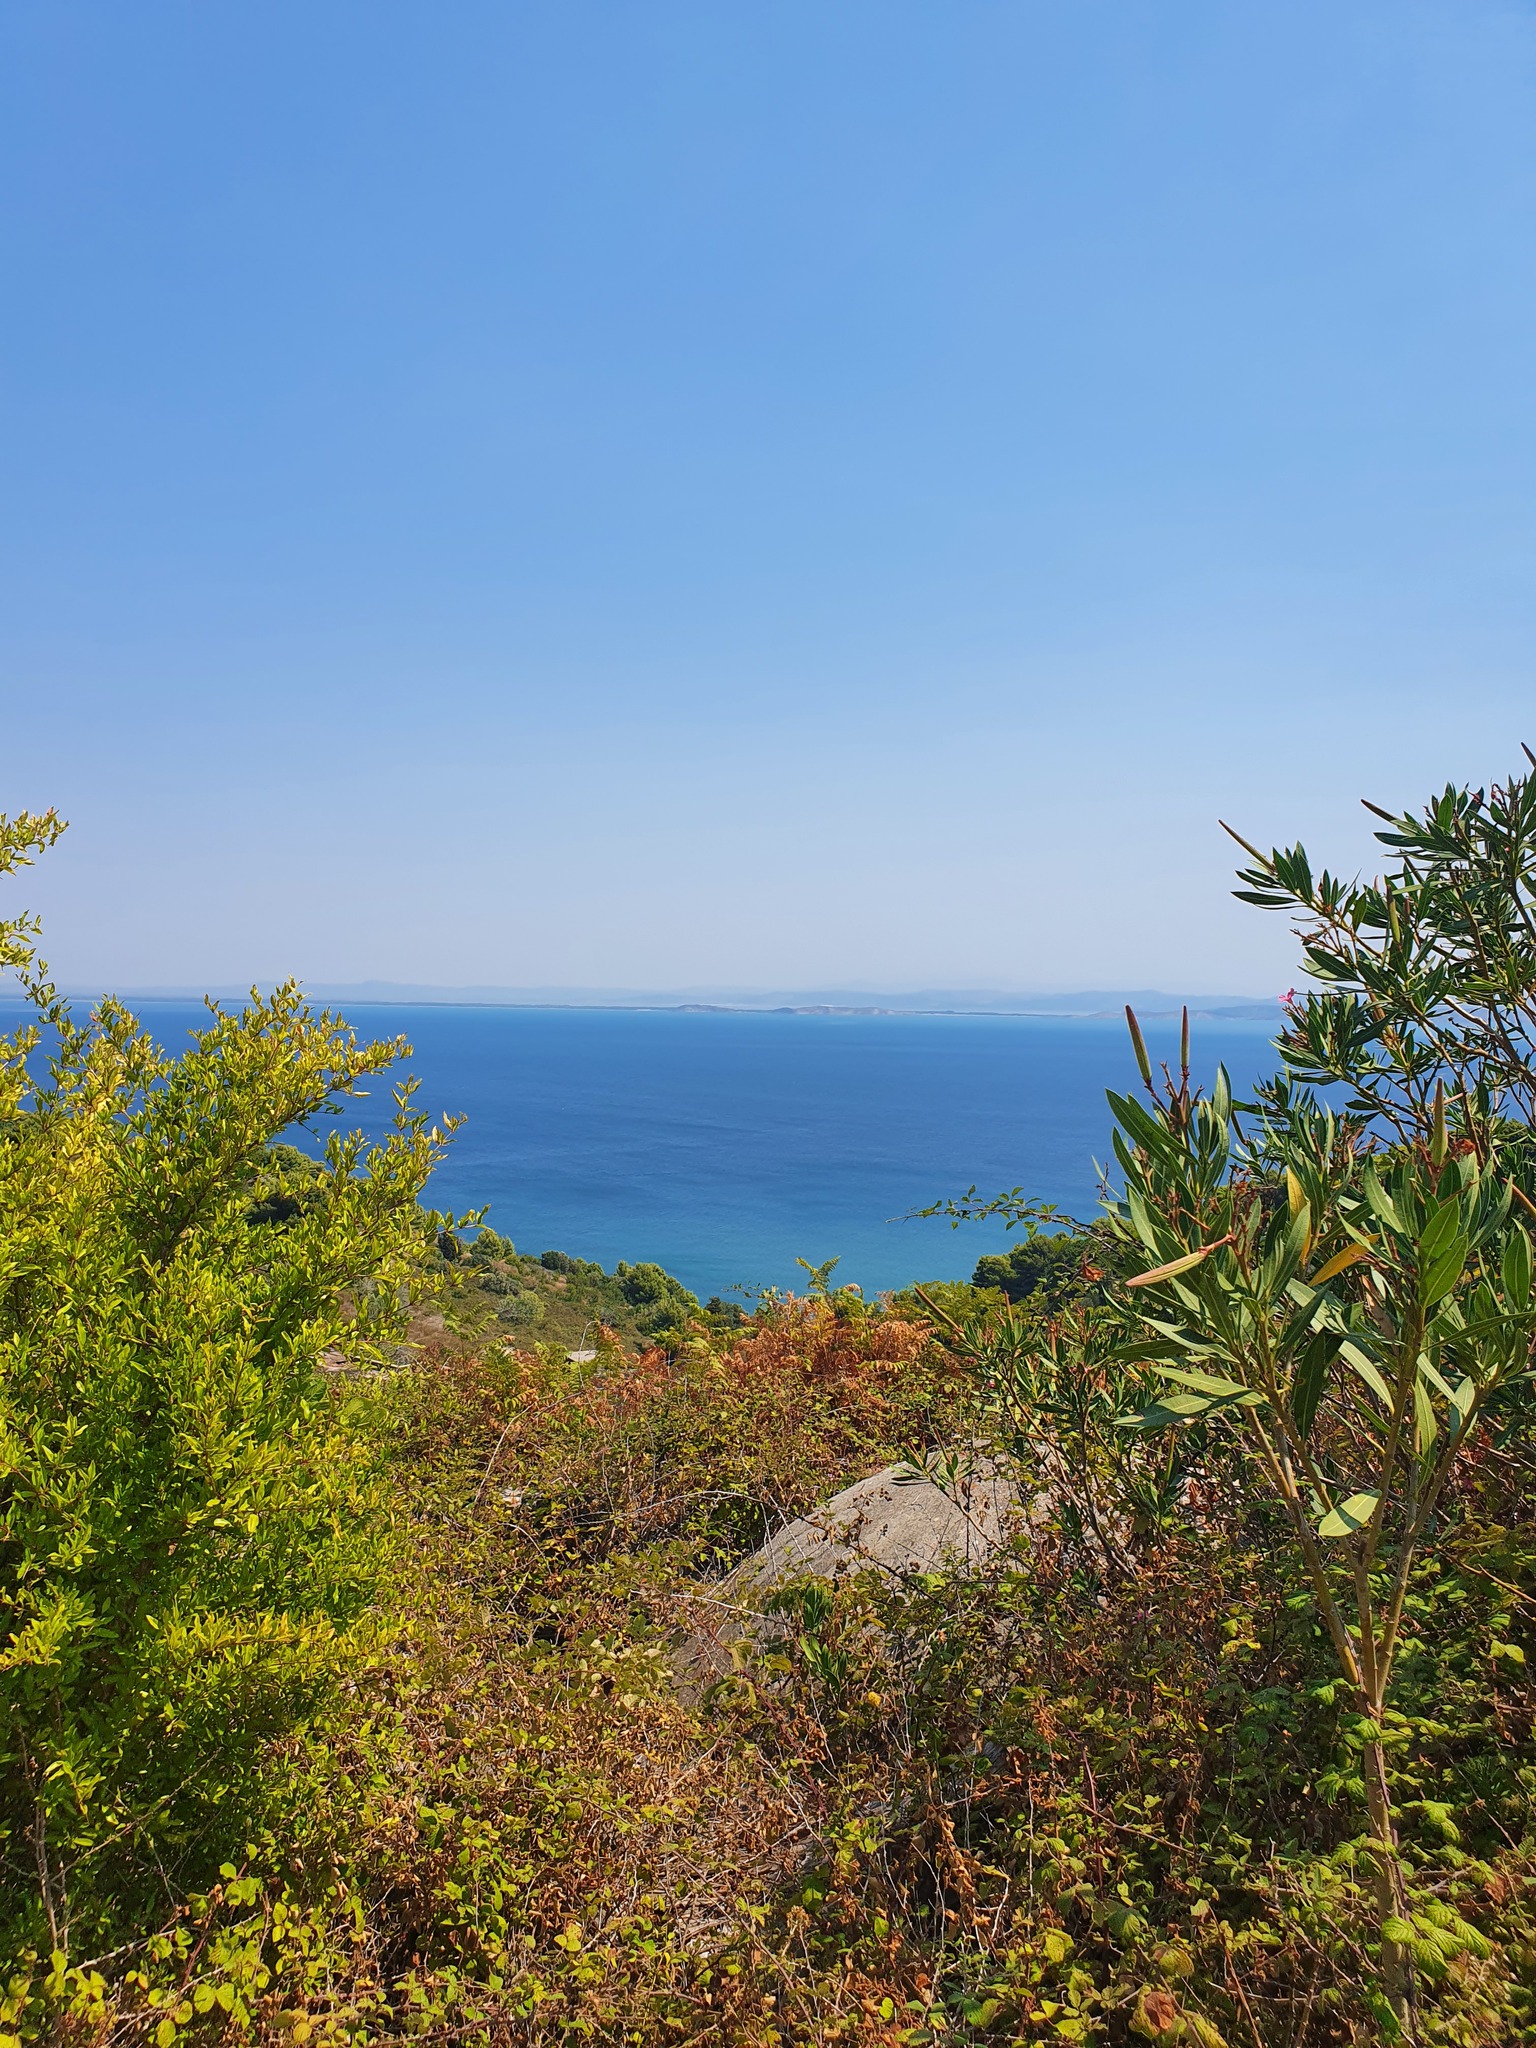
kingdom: Plantae
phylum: Tracheophyta
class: Magnoliopsida
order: Gentianales
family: Apocynaceae
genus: Nerium
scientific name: Nerium oleander
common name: Oleander
